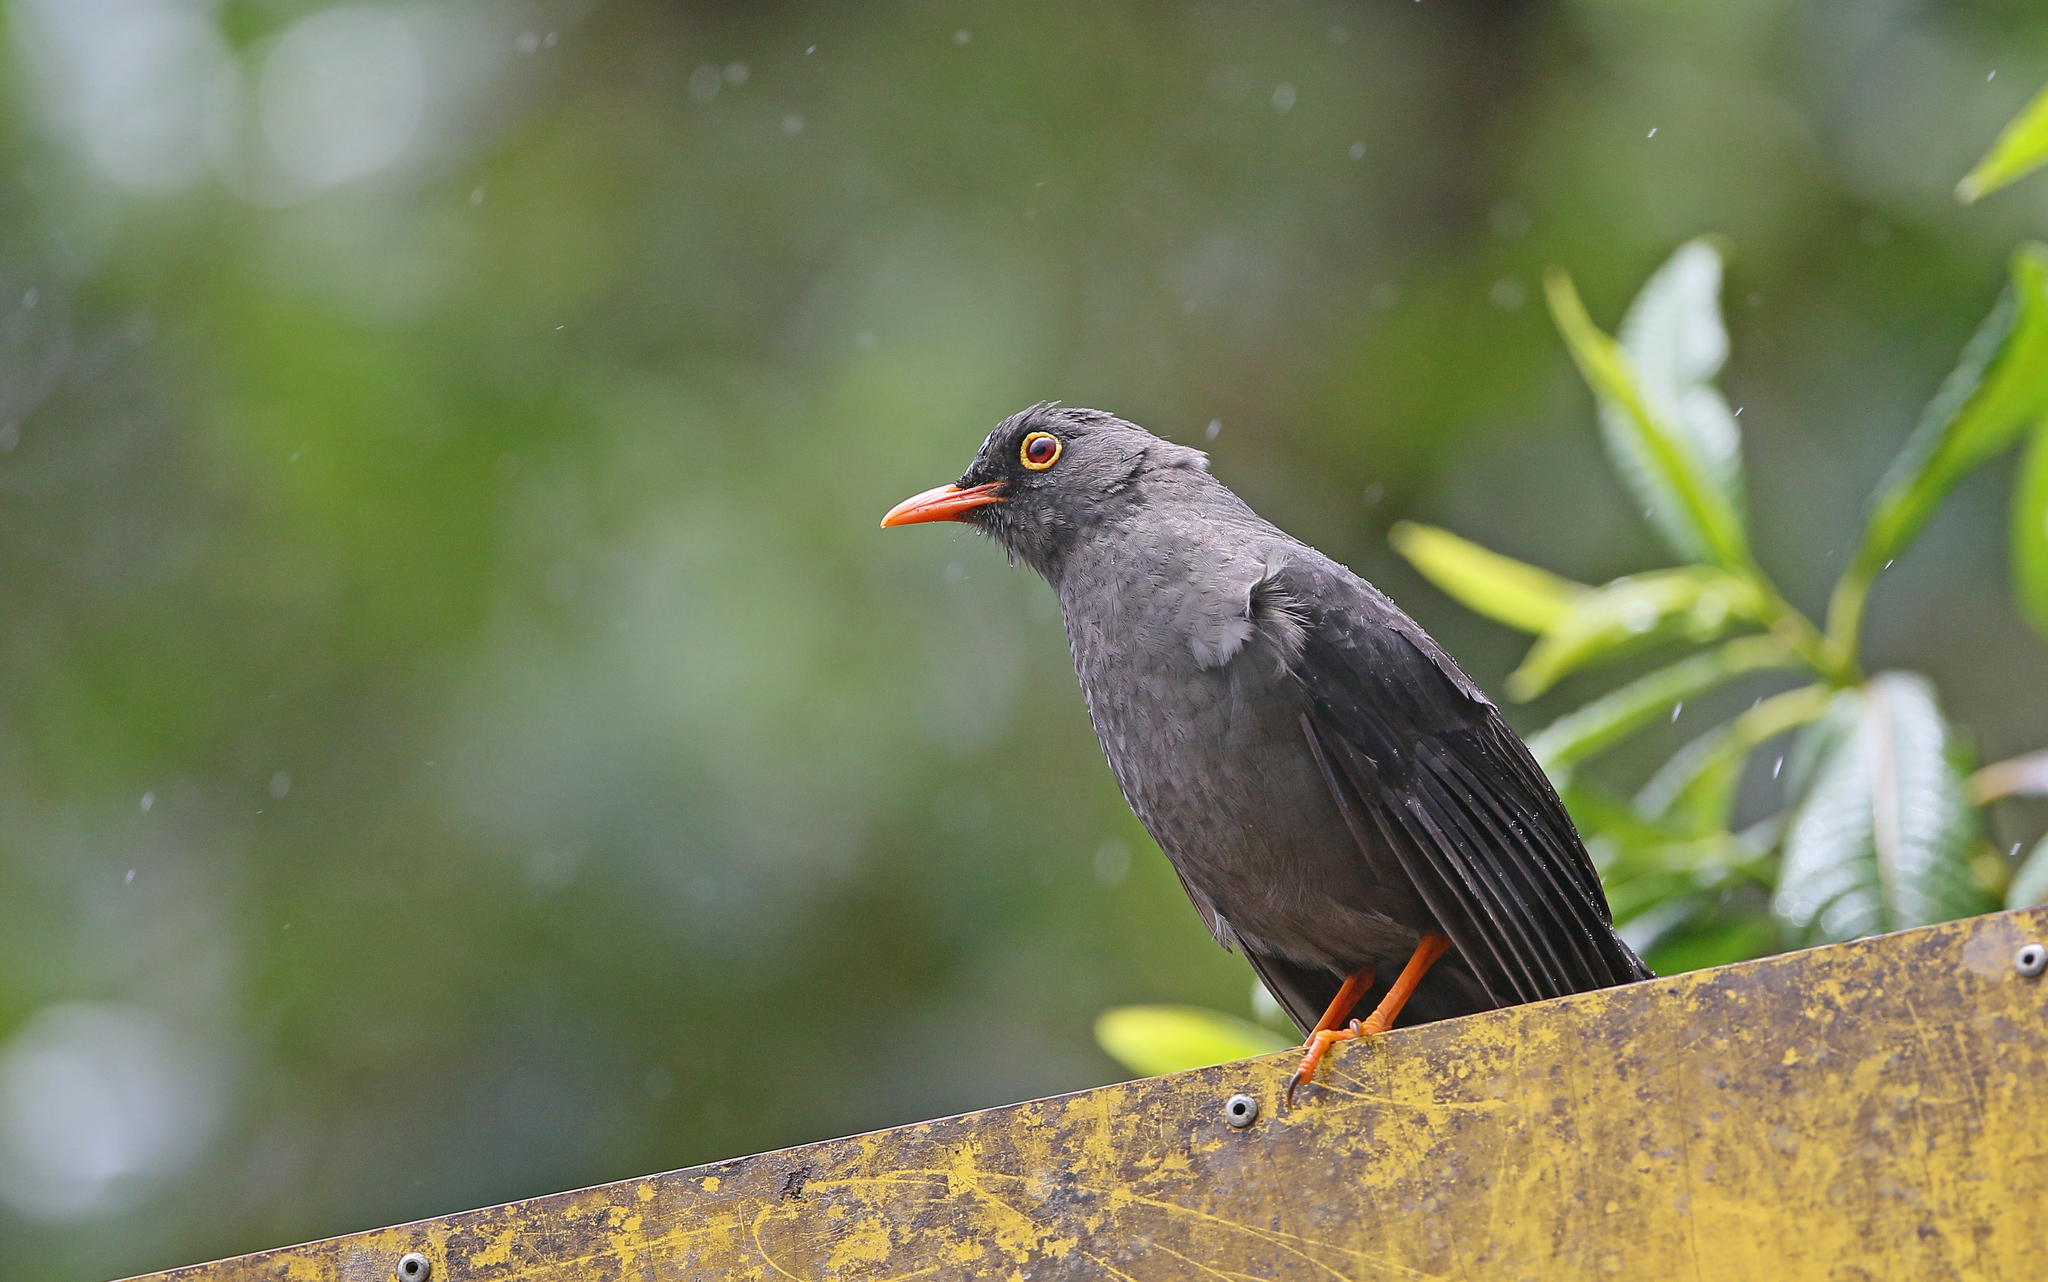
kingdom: Animalia
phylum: Chordata
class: Aves
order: Passeriformes
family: Turdidae
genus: Turdus
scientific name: Turdus fuscater
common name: Great thrush
